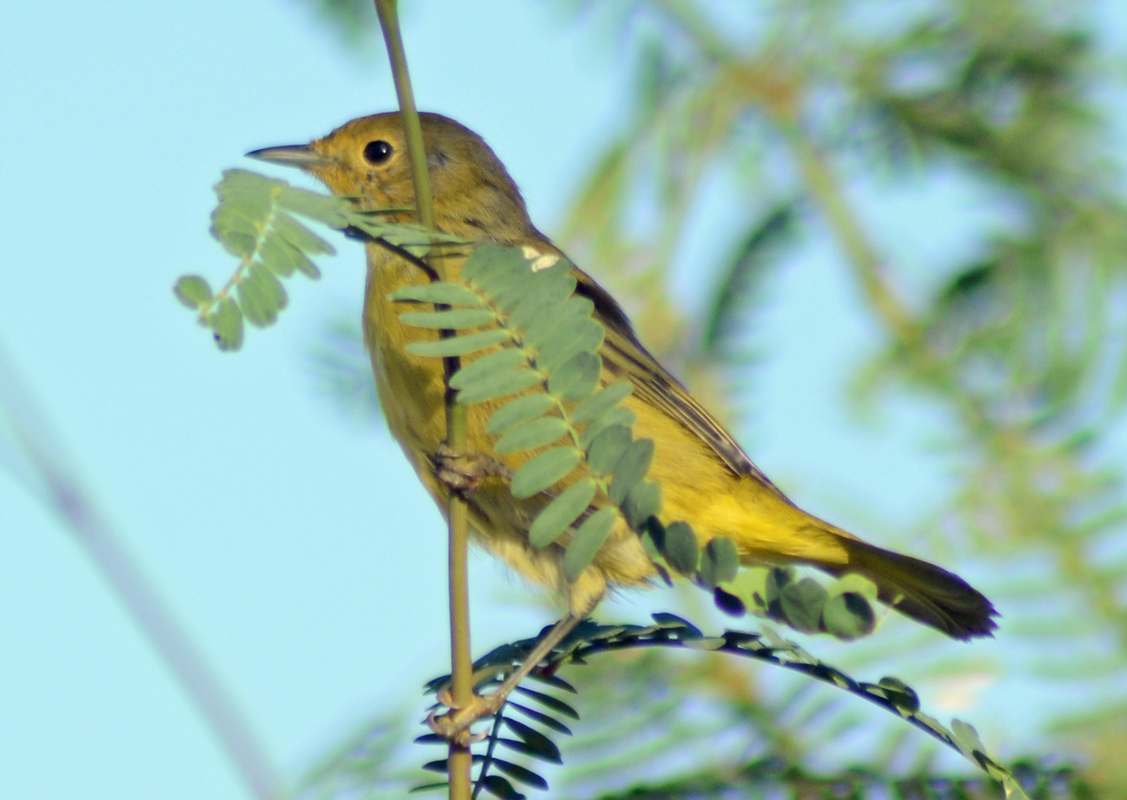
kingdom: Animalia
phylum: Chordata
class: Aves
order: Passeriformes
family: Parulidae
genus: Leiothlypis
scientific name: Leiothlypis celata
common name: Orange-crowned warbler
